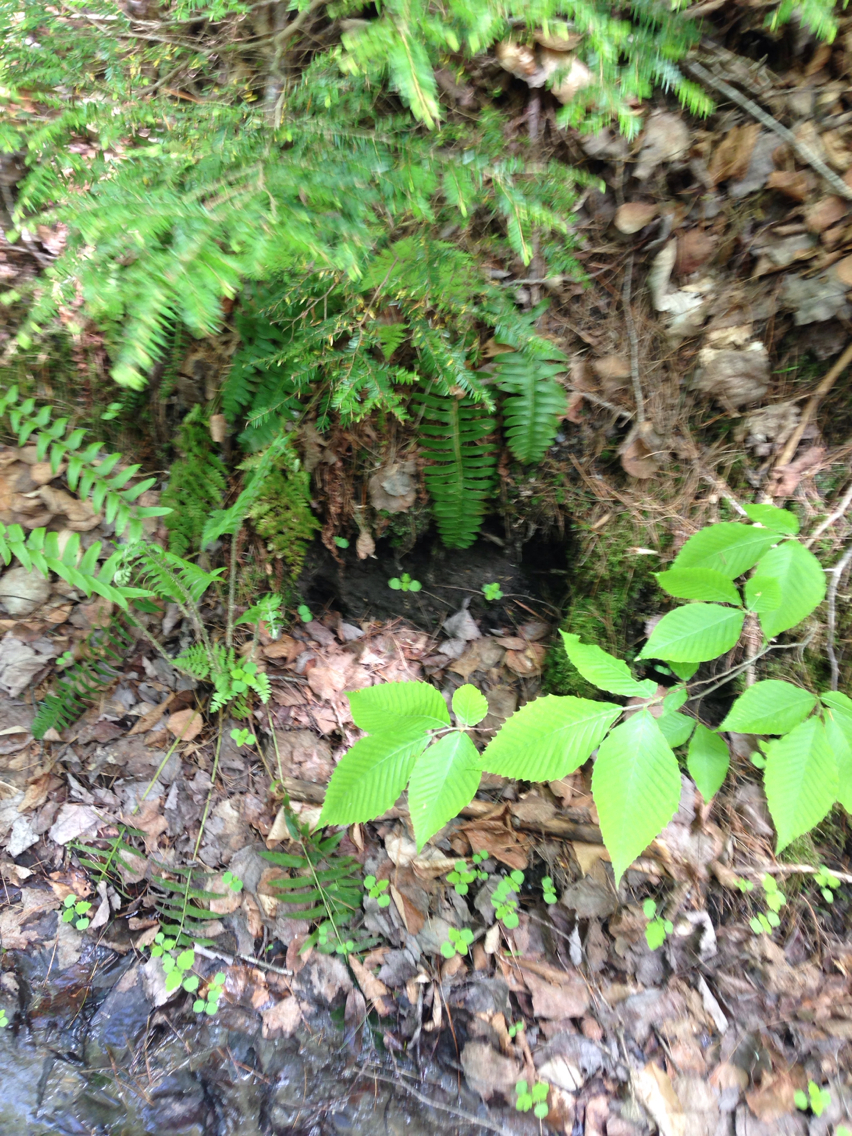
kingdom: Plantae
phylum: Tracheophyta
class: Polypodiopsida
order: Polypodiales
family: Dryopteridaceae
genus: Polystichum
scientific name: Polystichum acrostichoides
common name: Christmas fern
